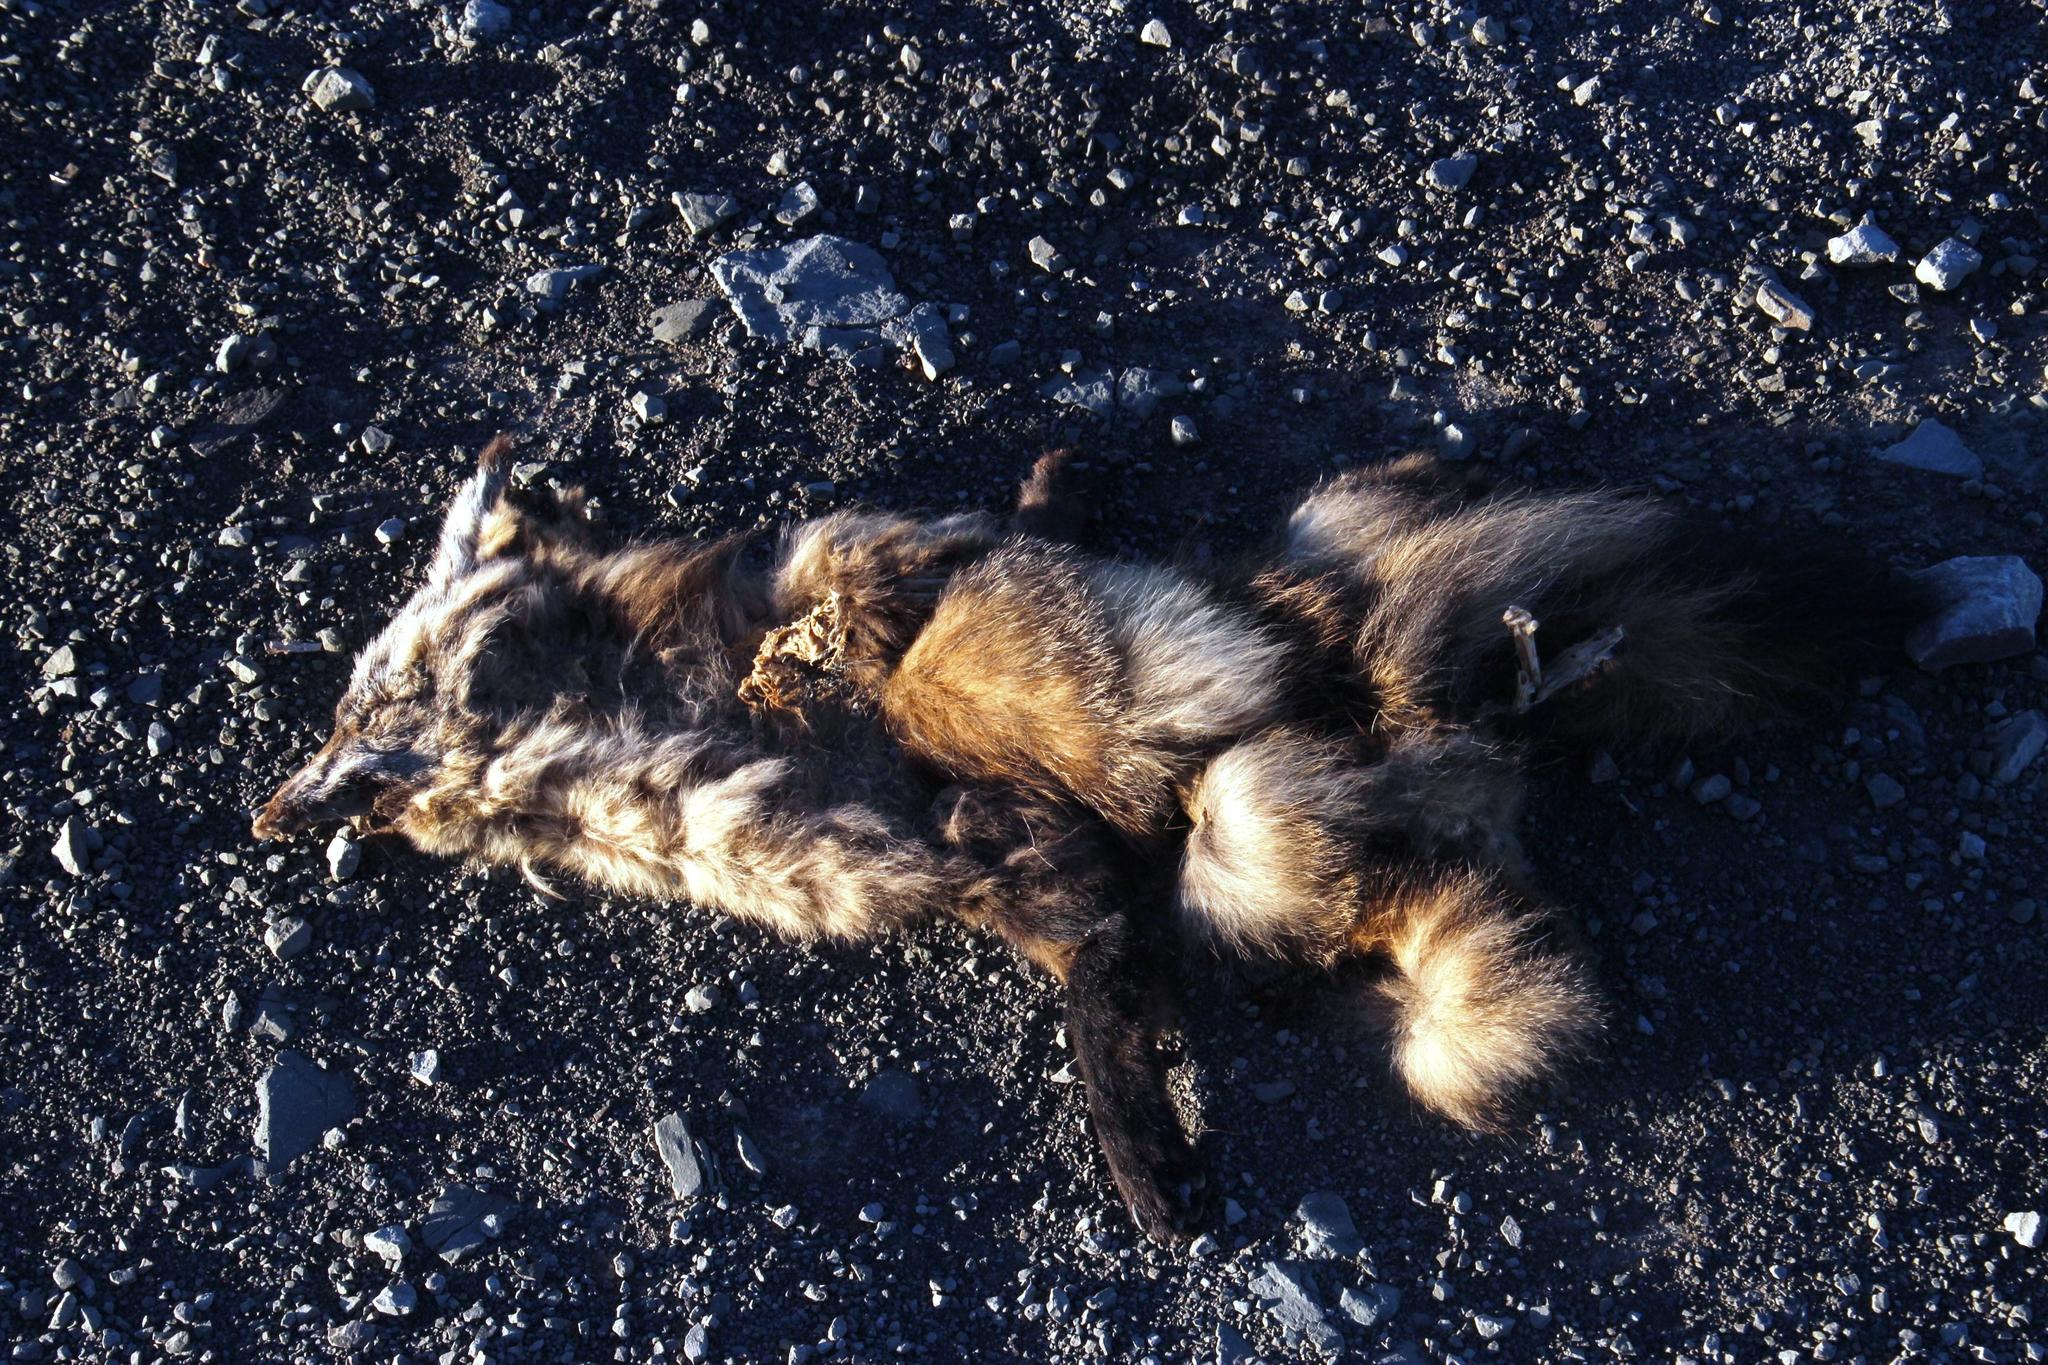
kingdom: Animalia
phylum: Chordata
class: Mammalia
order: Carnivora
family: Canidae
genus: Otocyon
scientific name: Otocyon megalotis
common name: Bat-eared fox
